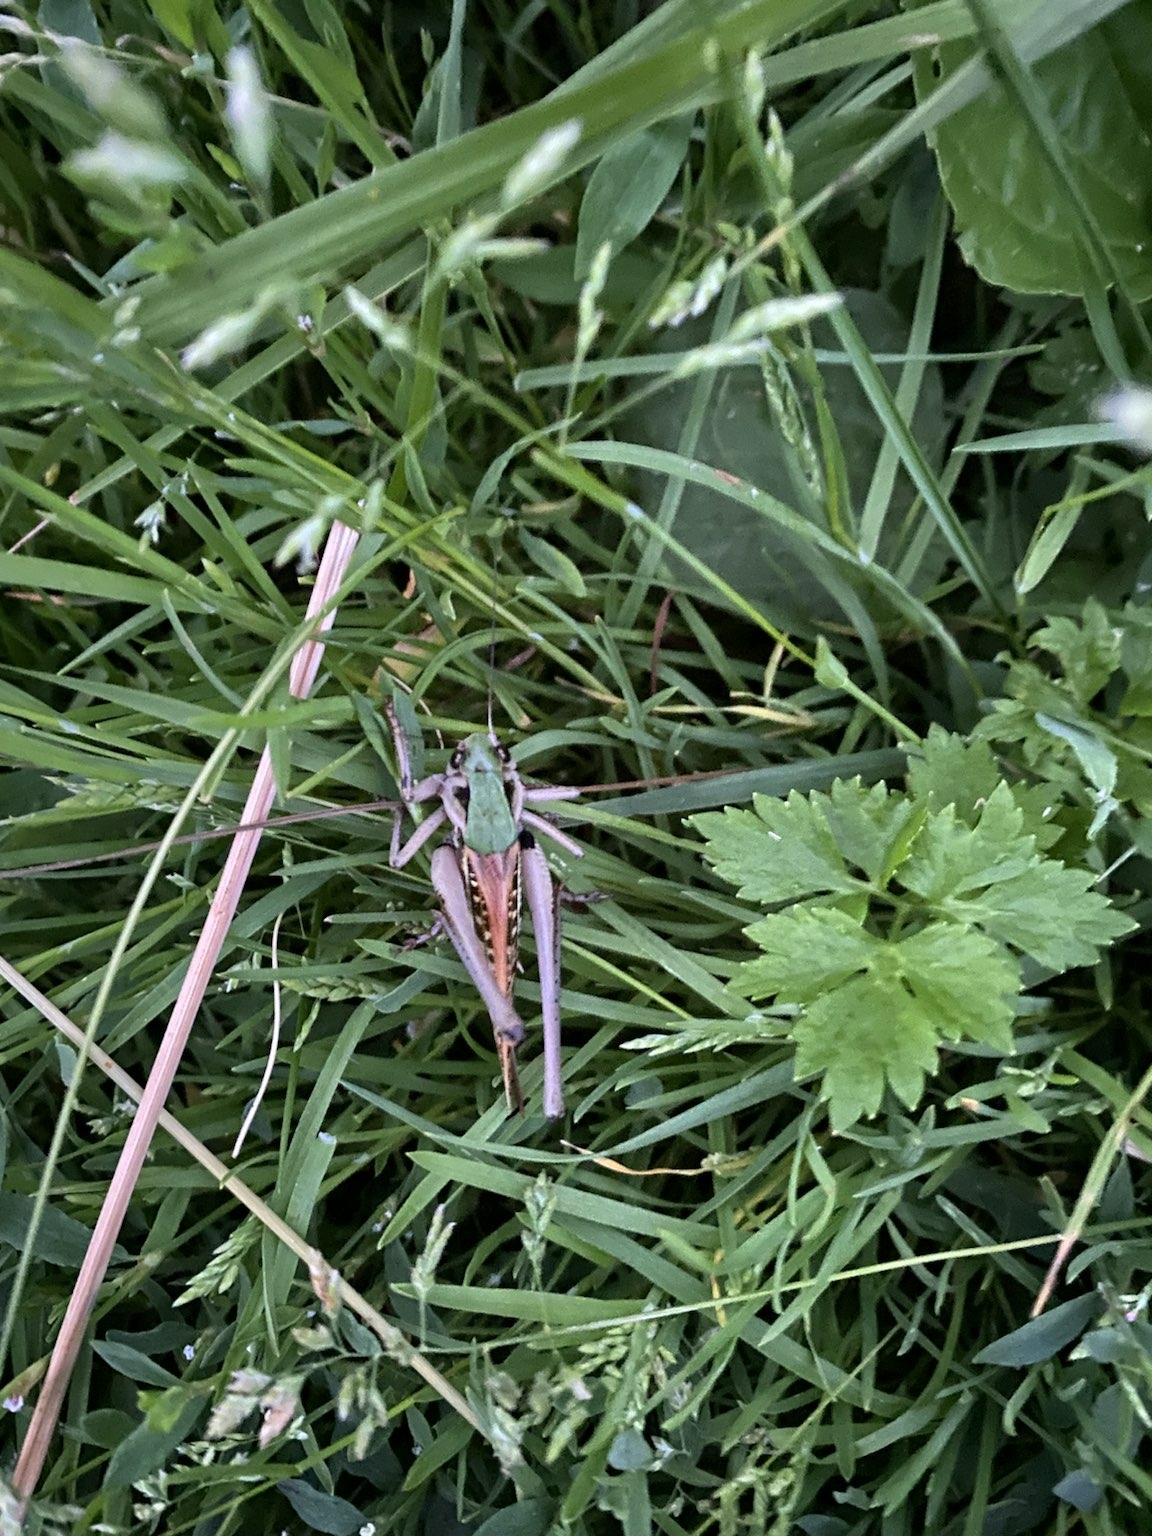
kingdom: Animalia
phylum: Arthropoda
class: Insecta
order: Orthoptera
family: Tettigoniidae
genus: Decticus
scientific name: Decticus verrucivorus
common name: Wart-biter
